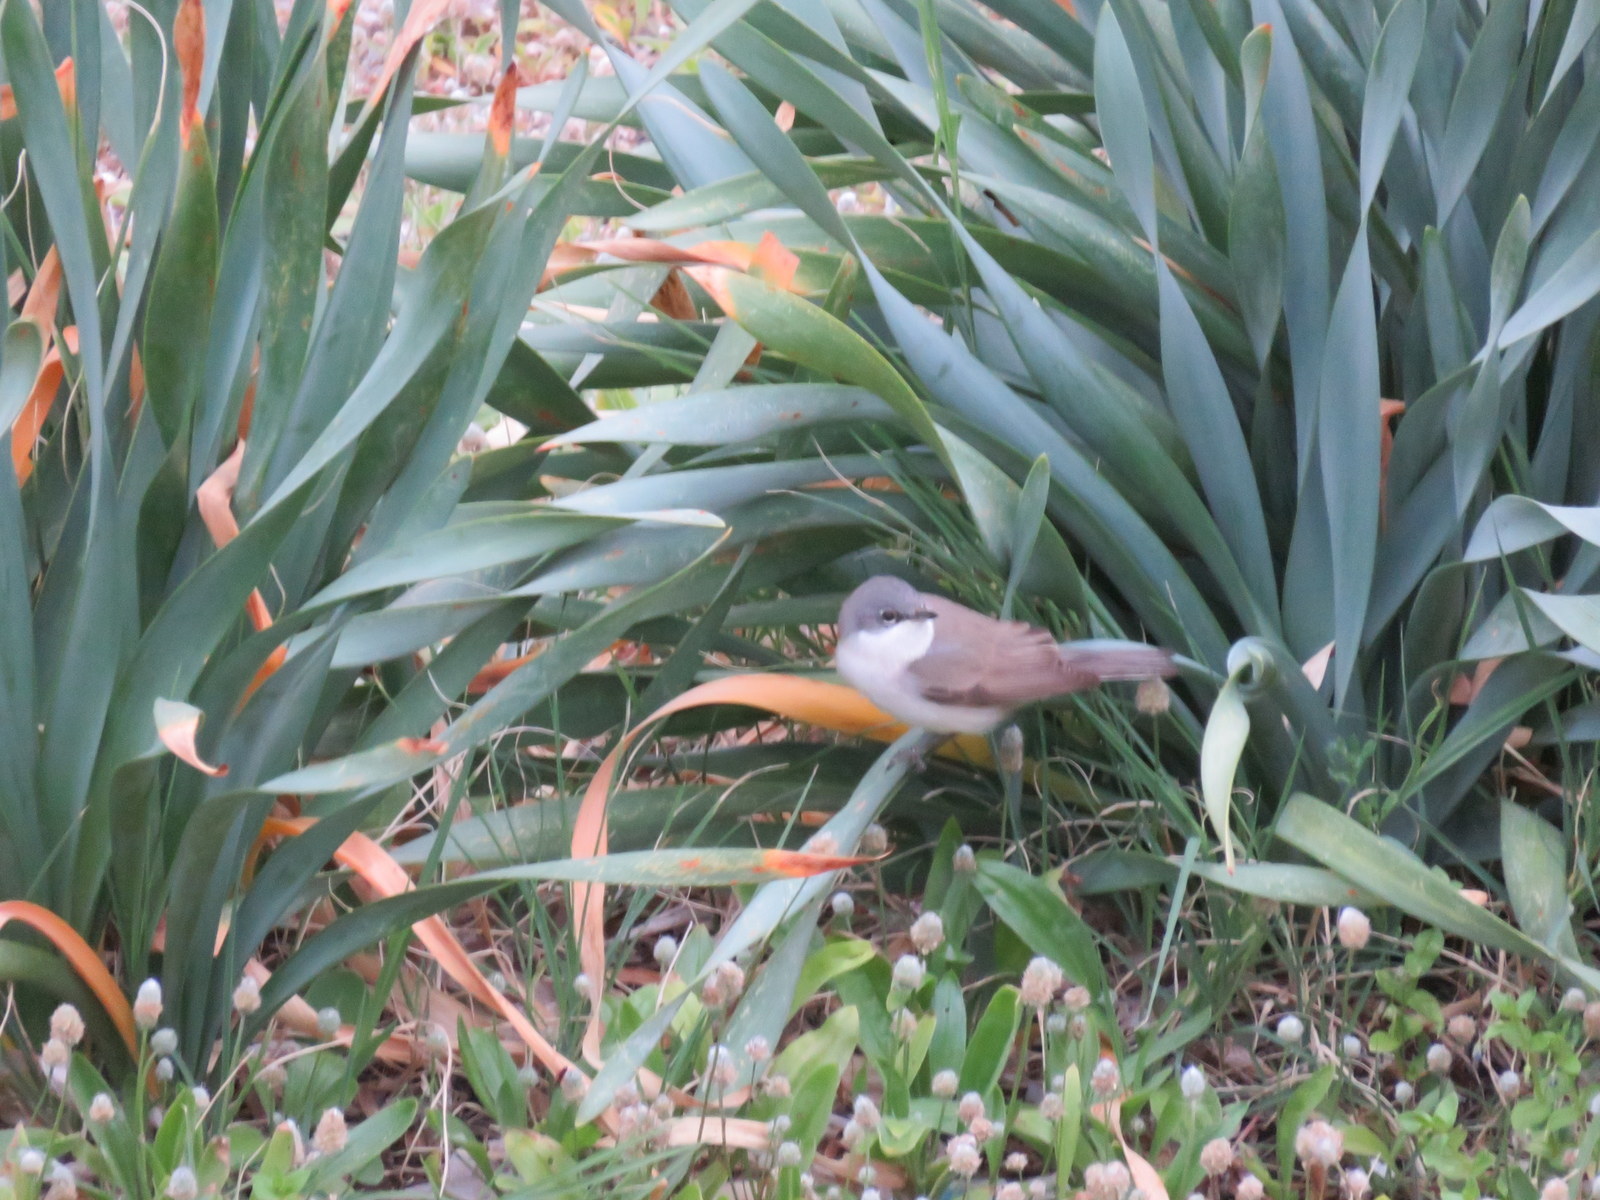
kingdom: Animalia
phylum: Chordata
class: Aves
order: Passeriformes
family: Sylviidae
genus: Sylvia
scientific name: Sylvia curruca
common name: Lesser whitethroat
